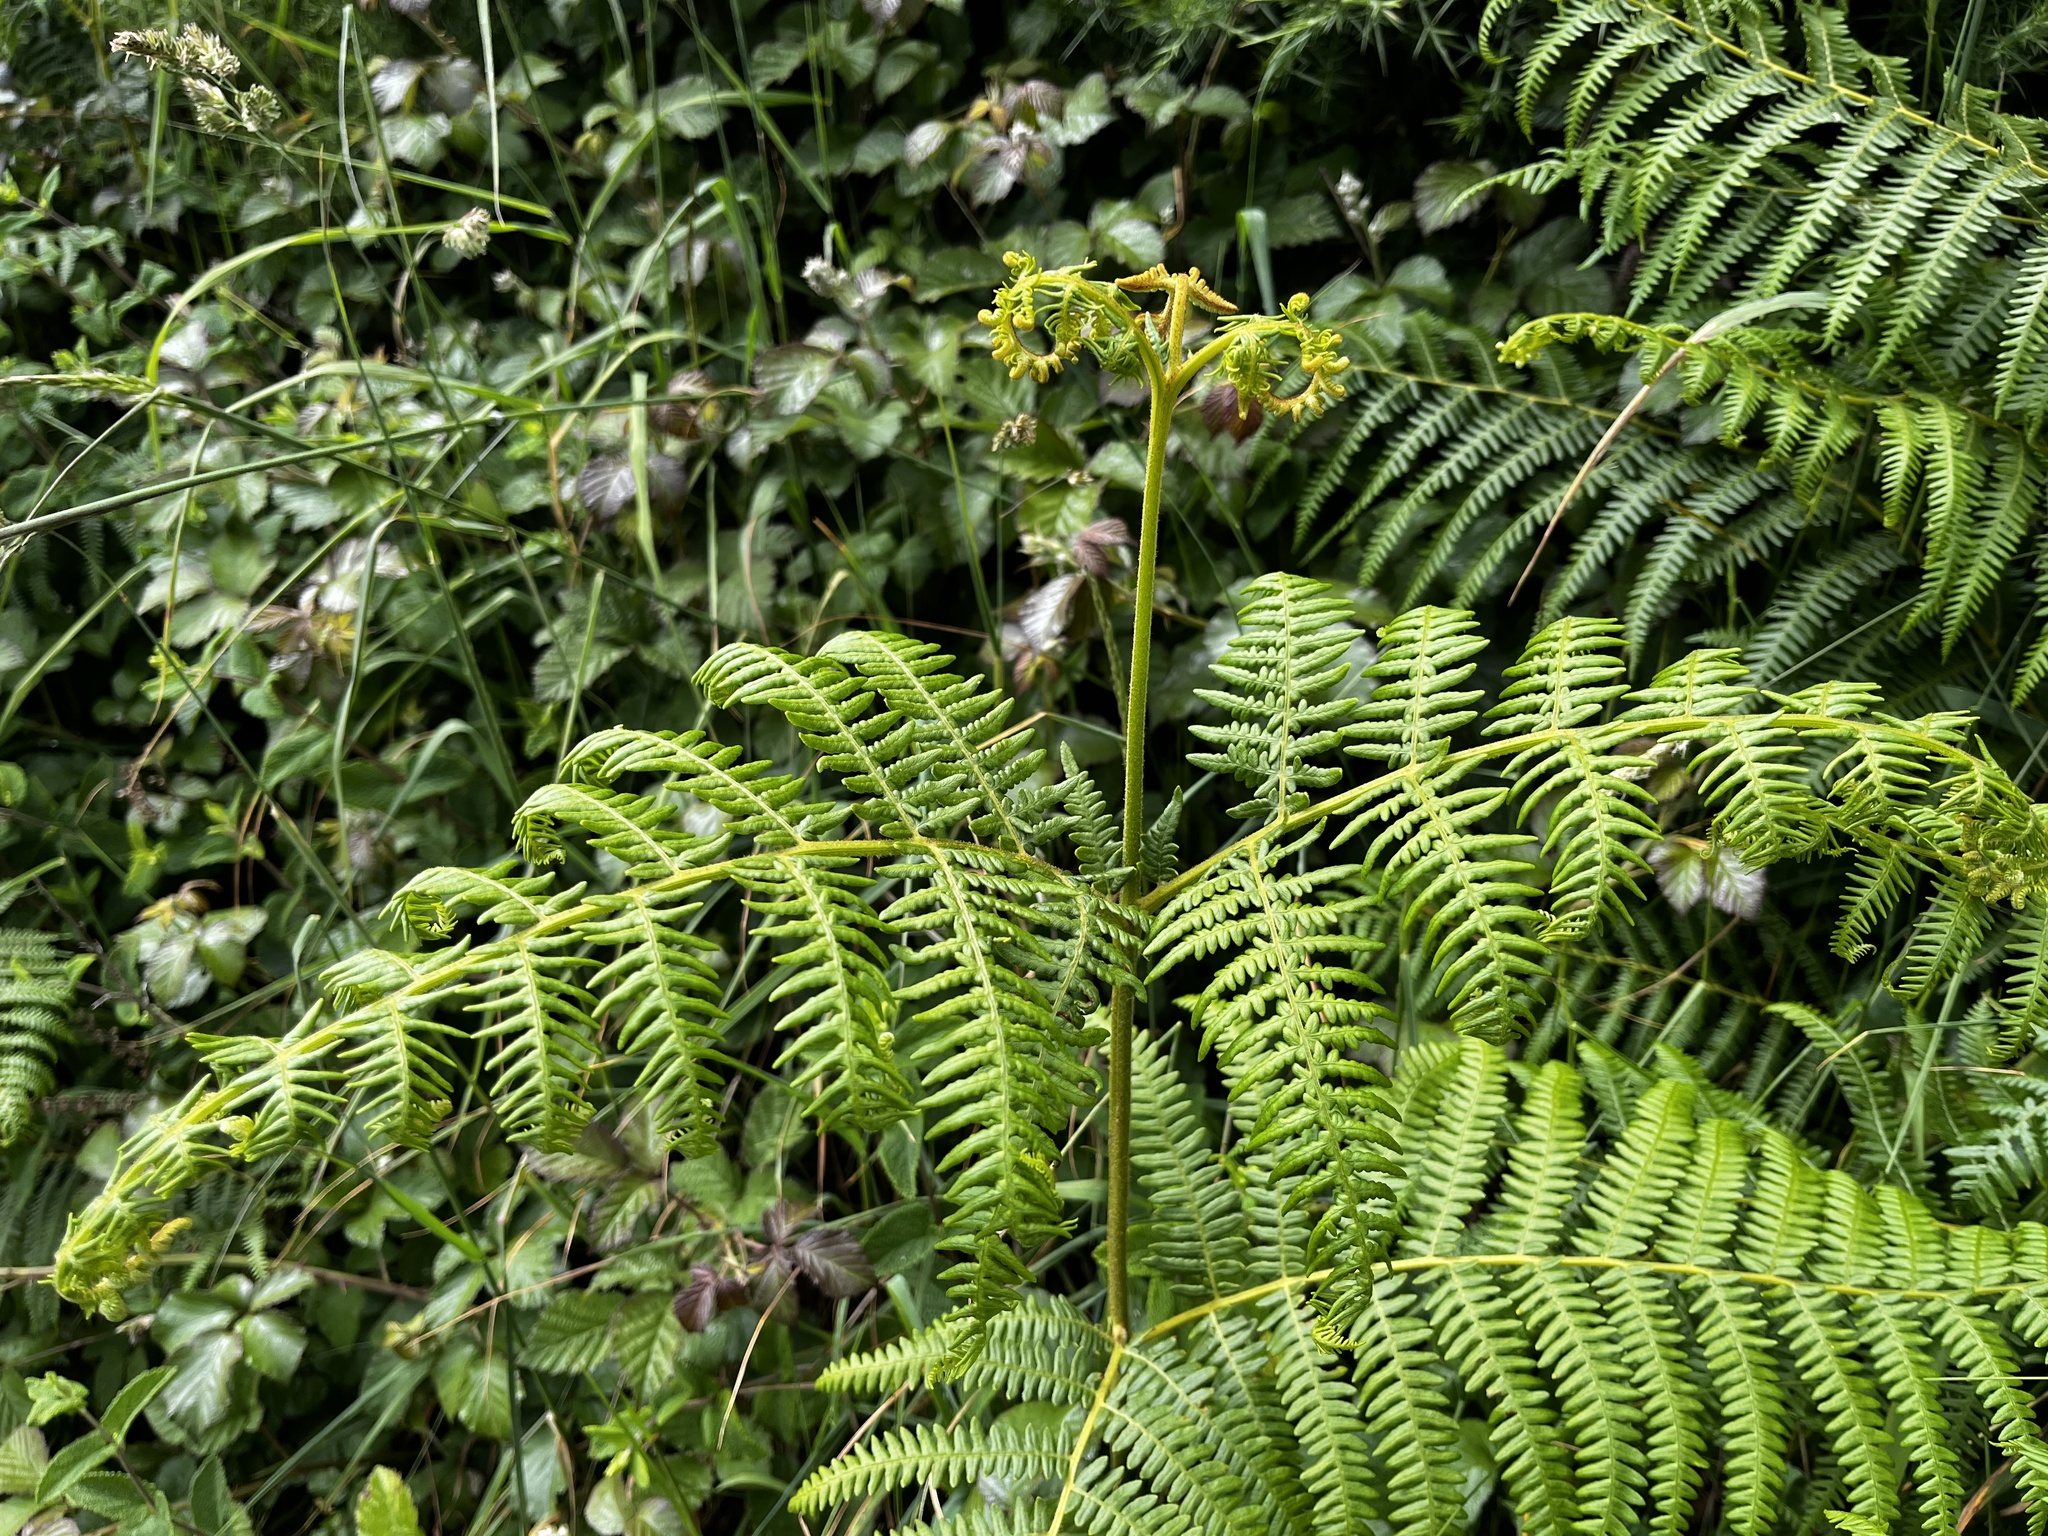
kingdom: Plantae
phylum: Tracheophyta
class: Polypodiopsida
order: Polypodiales
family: Dennstaedtiaceae
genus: Pteridium
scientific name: Pteridium aquilinum
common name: Bracken
